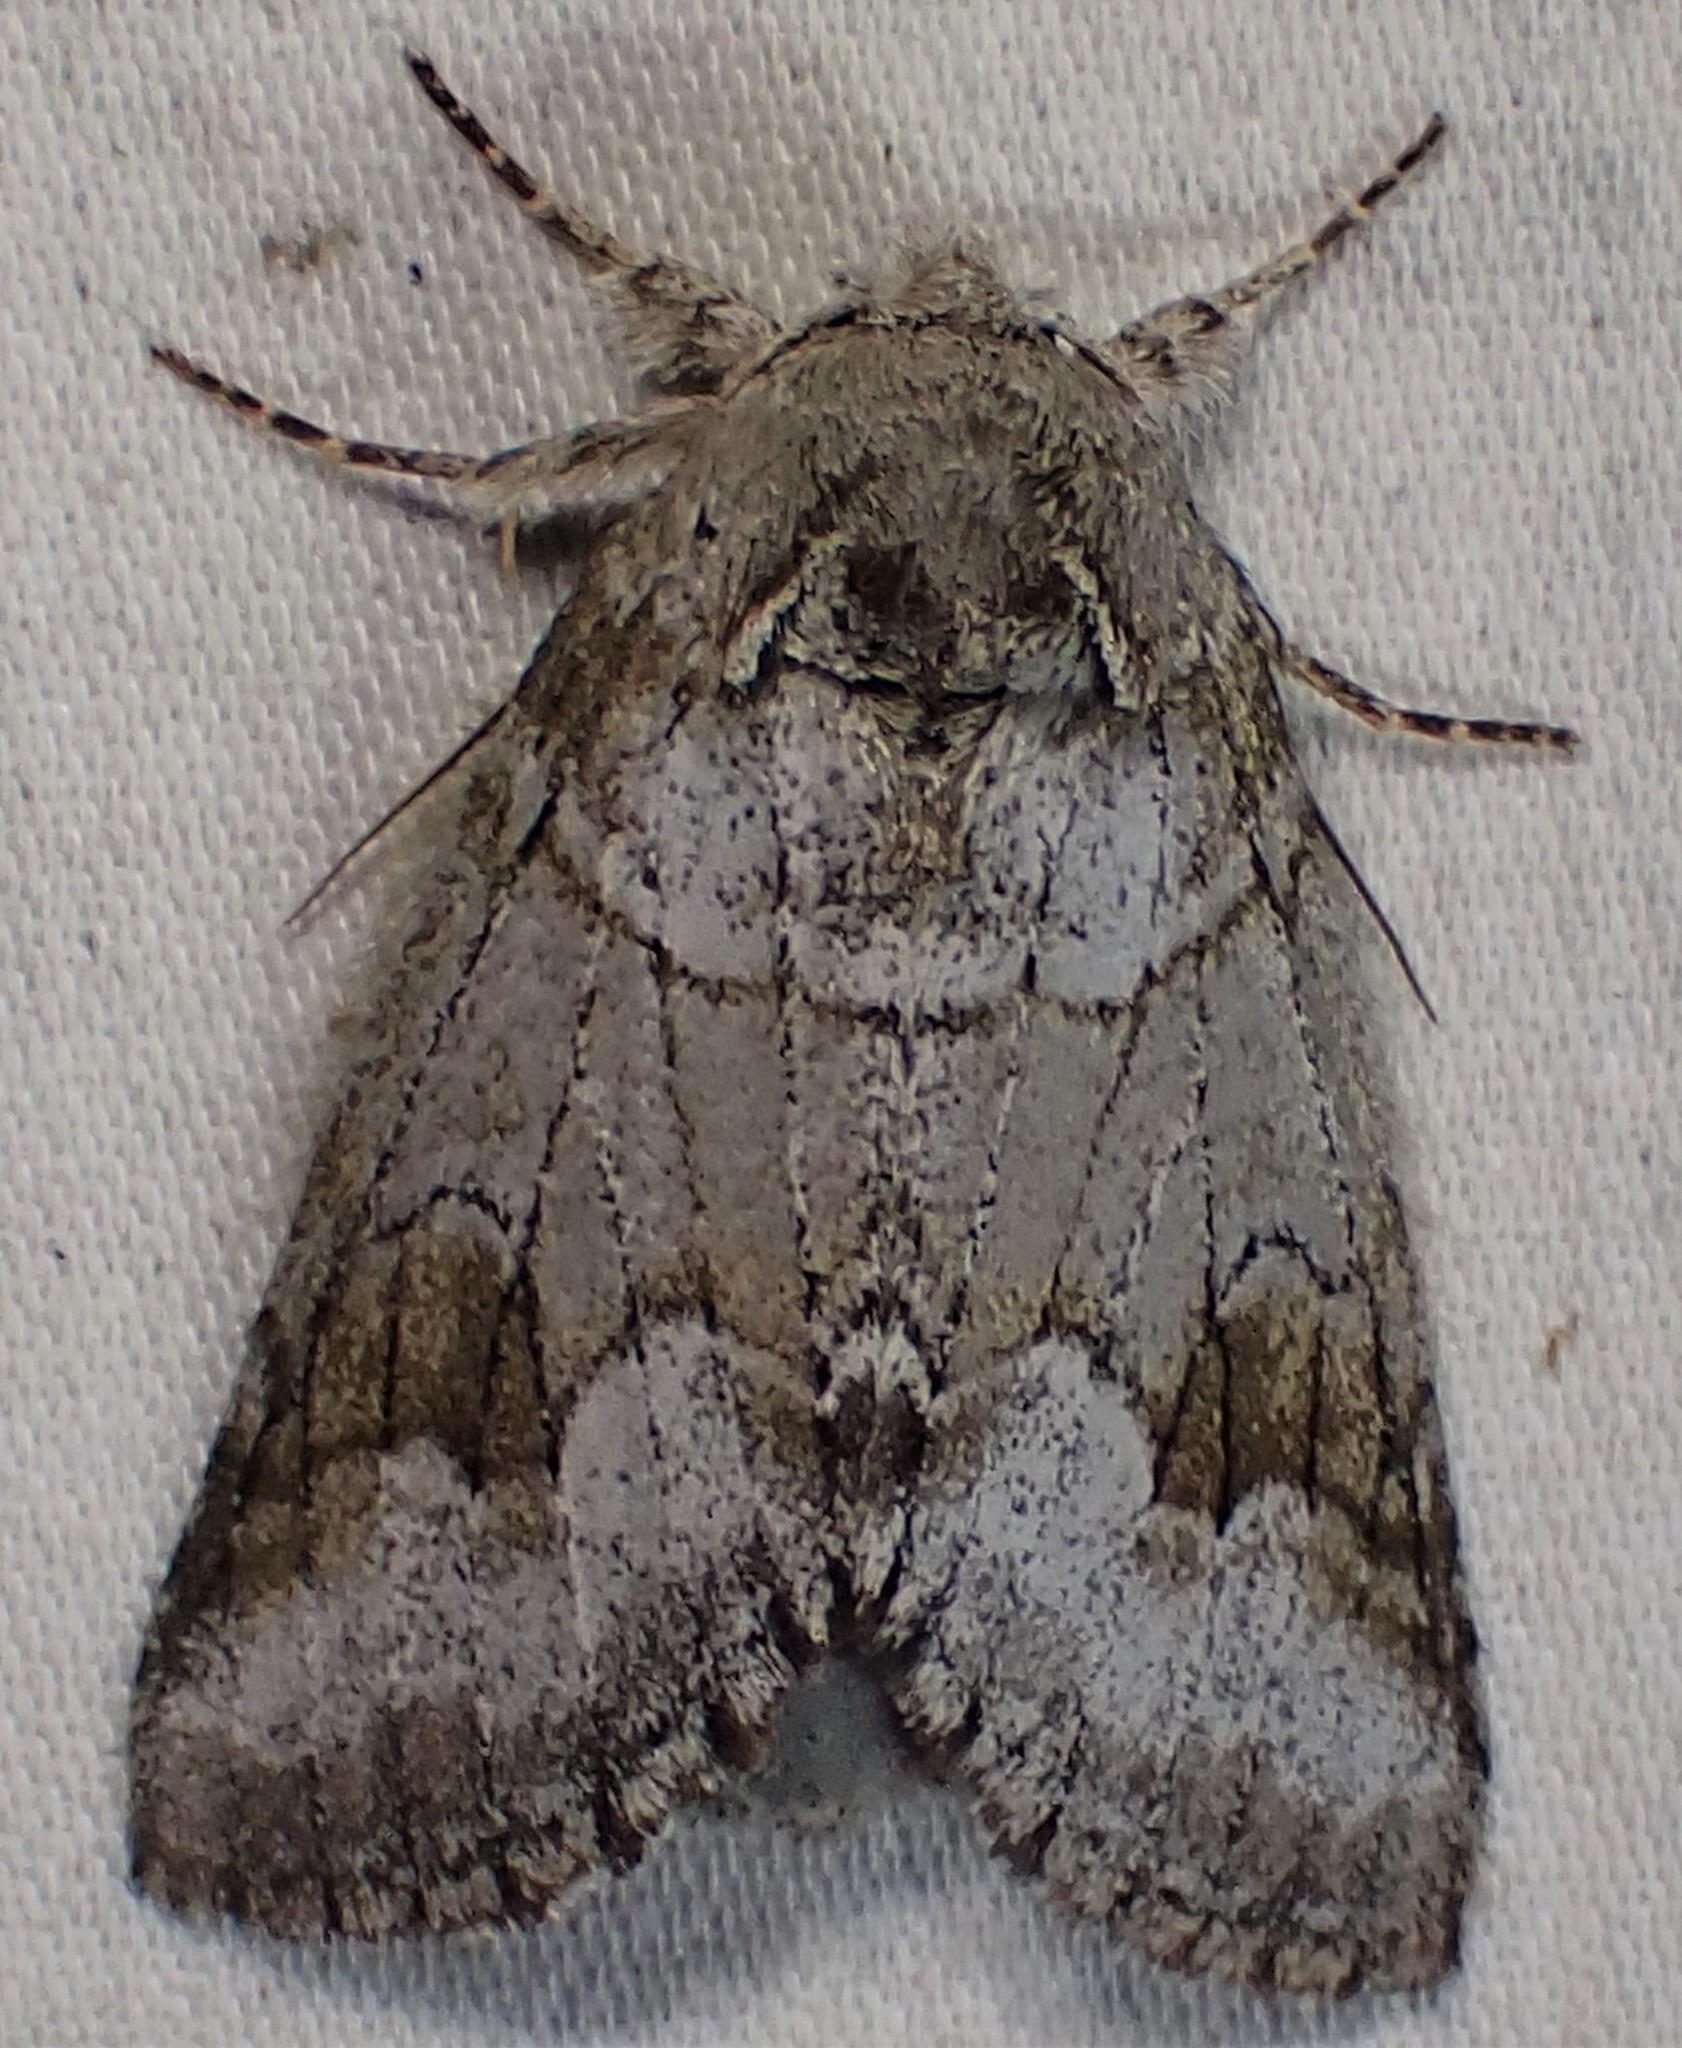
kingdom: Animalia
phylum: Arthropoda
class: Insecta
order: Lepidoptera
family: Notodontidae
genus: Lochmaeus
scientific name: Lochmaeus bilineata
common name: Double-lined prominent
